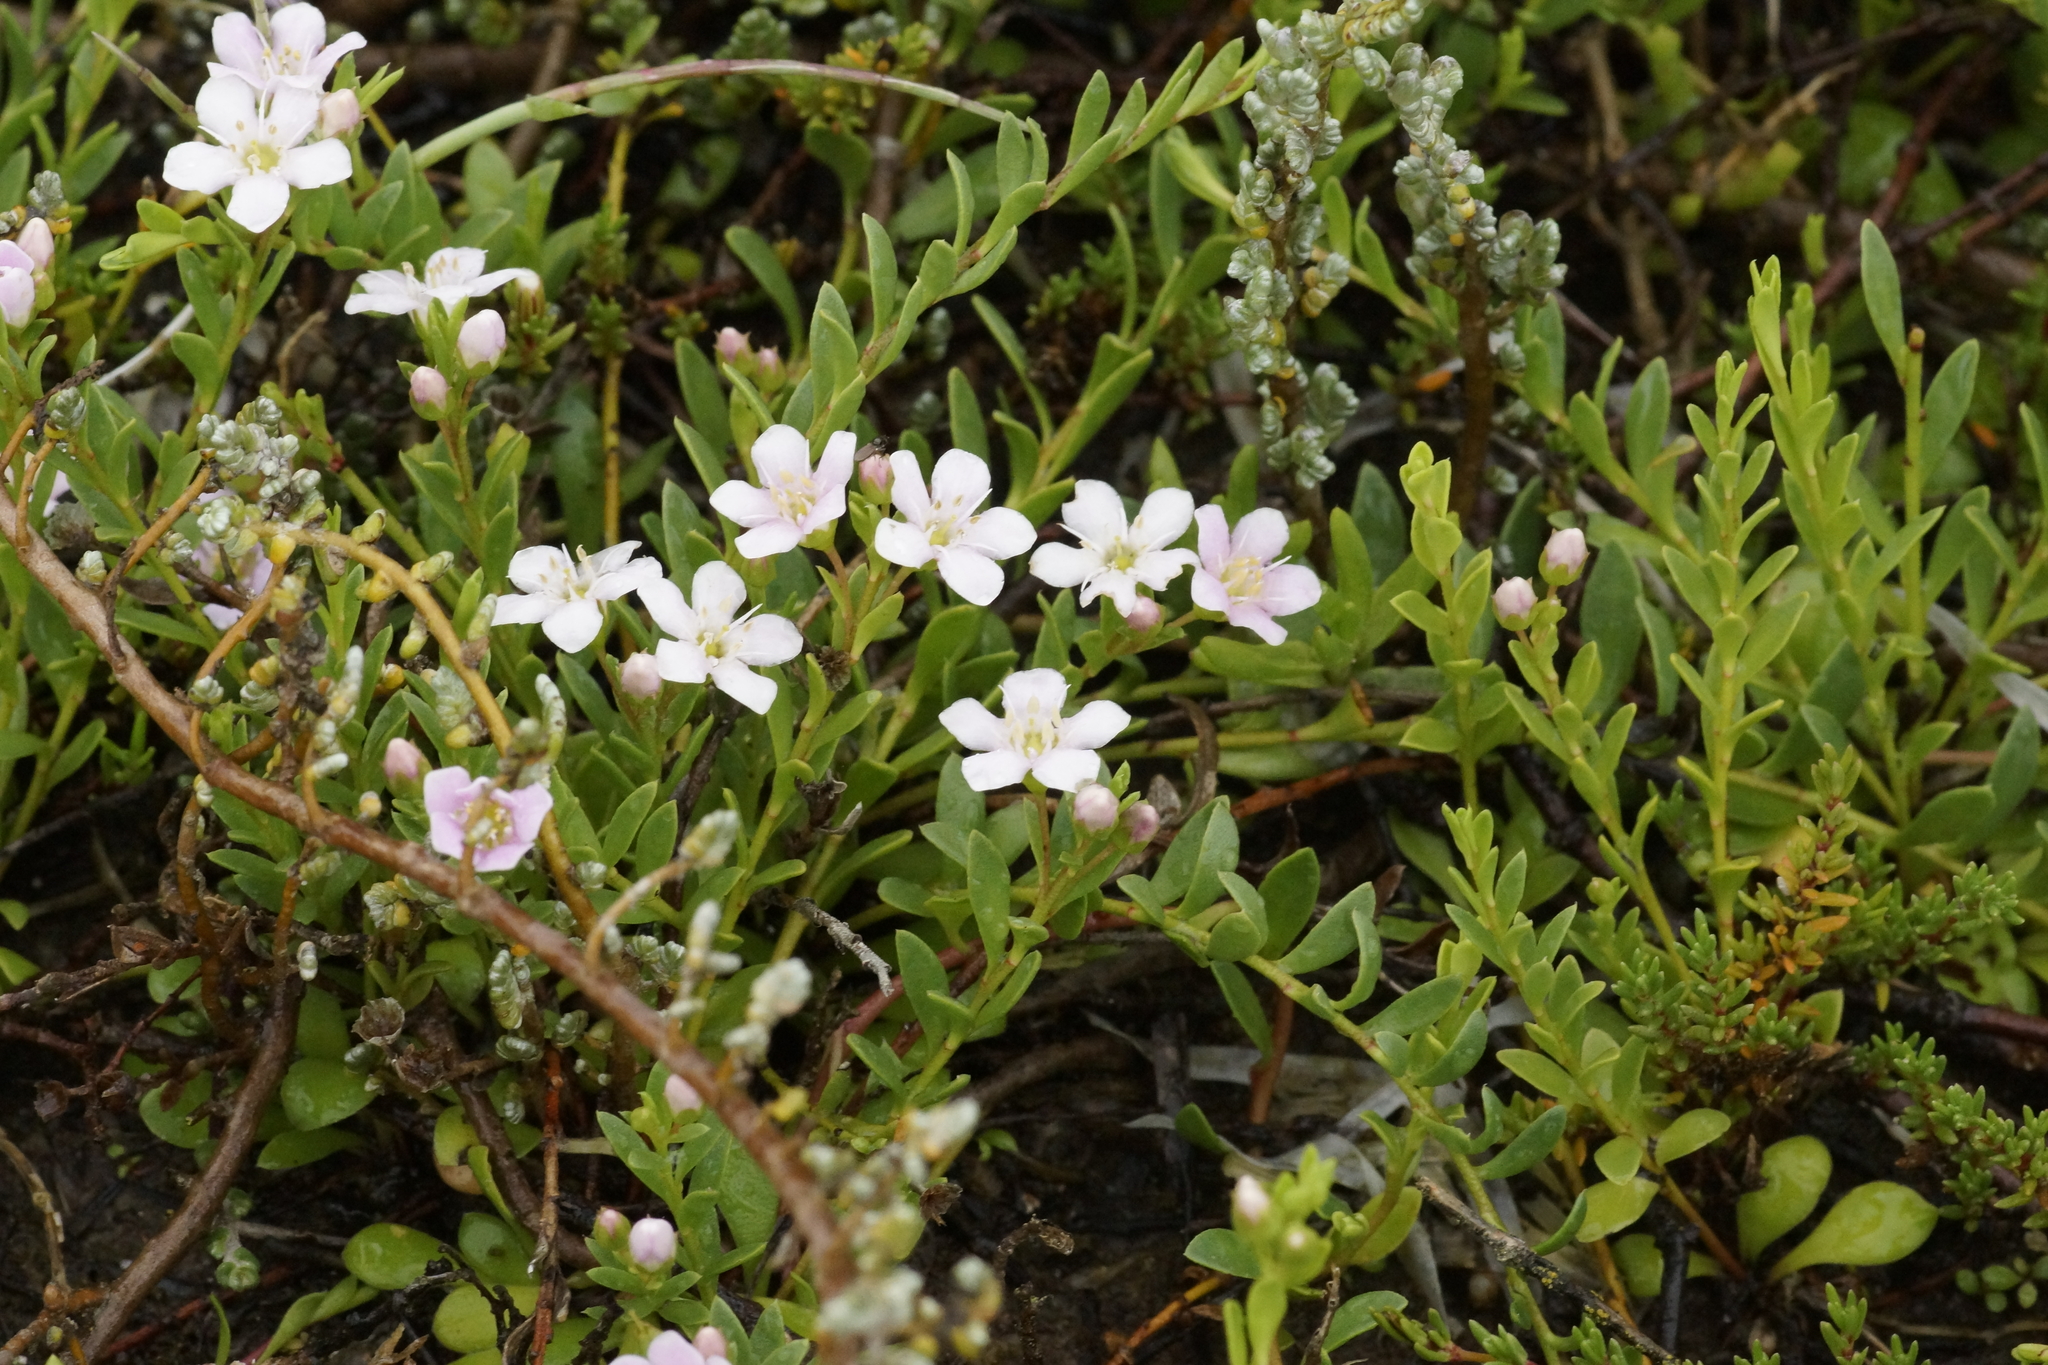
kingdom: Plantae
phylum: Tracheophyta
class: Magnoliopsida
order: Ericales
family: Primulaceae
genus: Samolus
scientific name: Samolus repens
